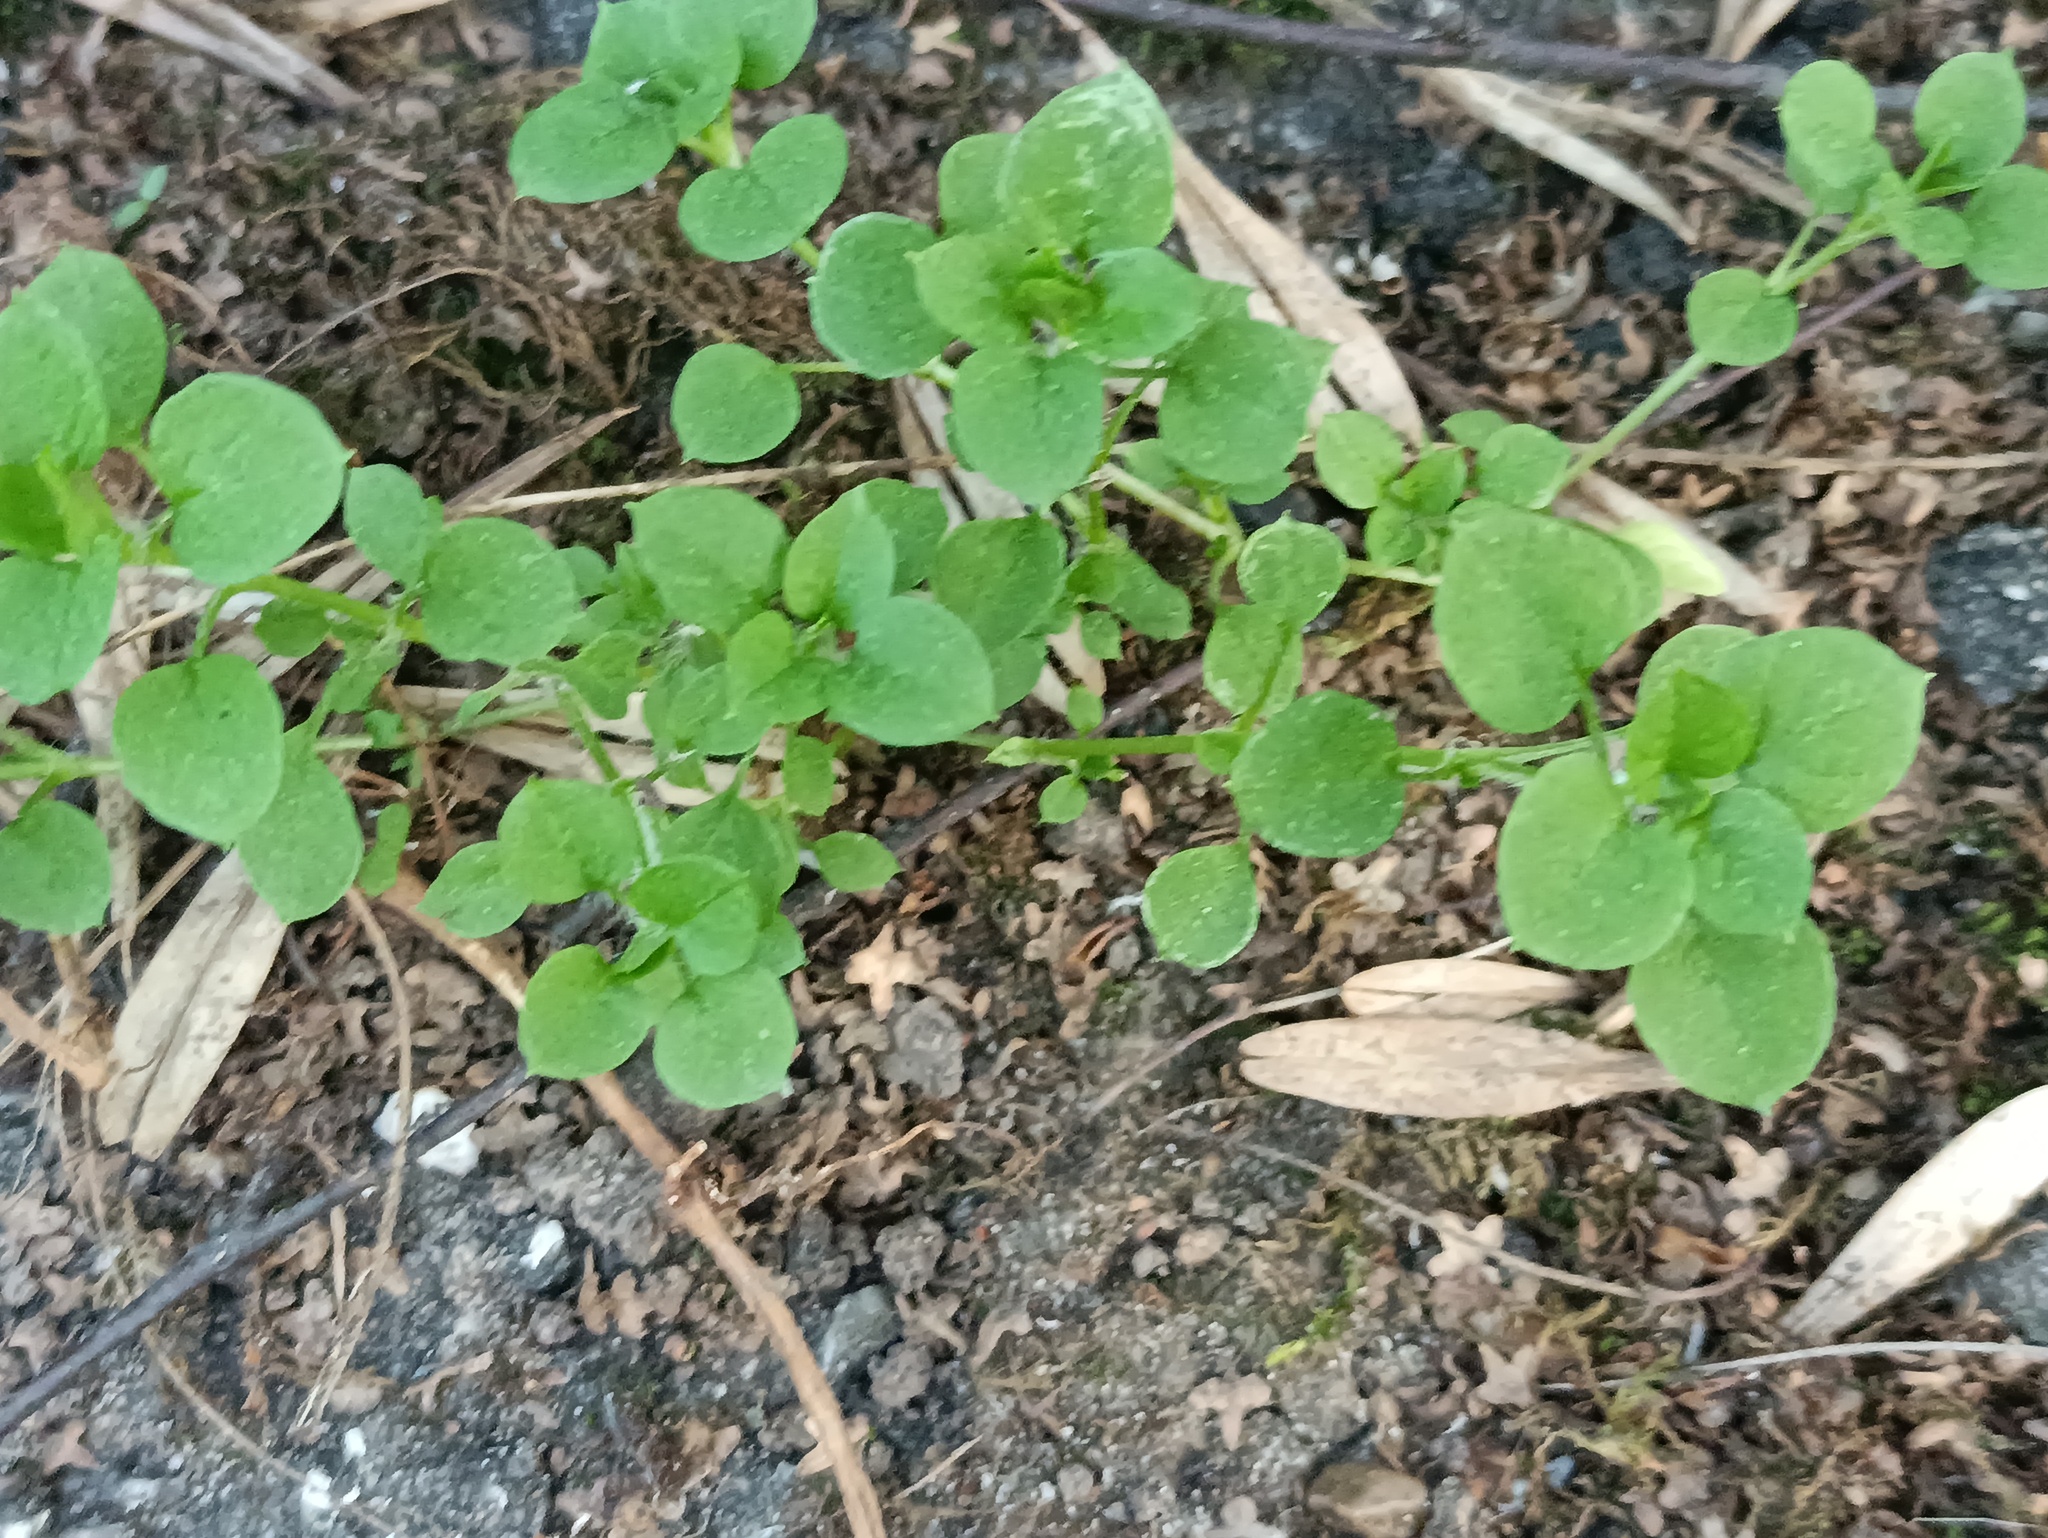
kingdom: Plantae
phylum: Tracheophyta
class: Magnoliopsida
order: Caryophyllales
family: Caryophyllaceae
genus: Stellaria
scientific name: Stellaria media
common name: Common chickweed
